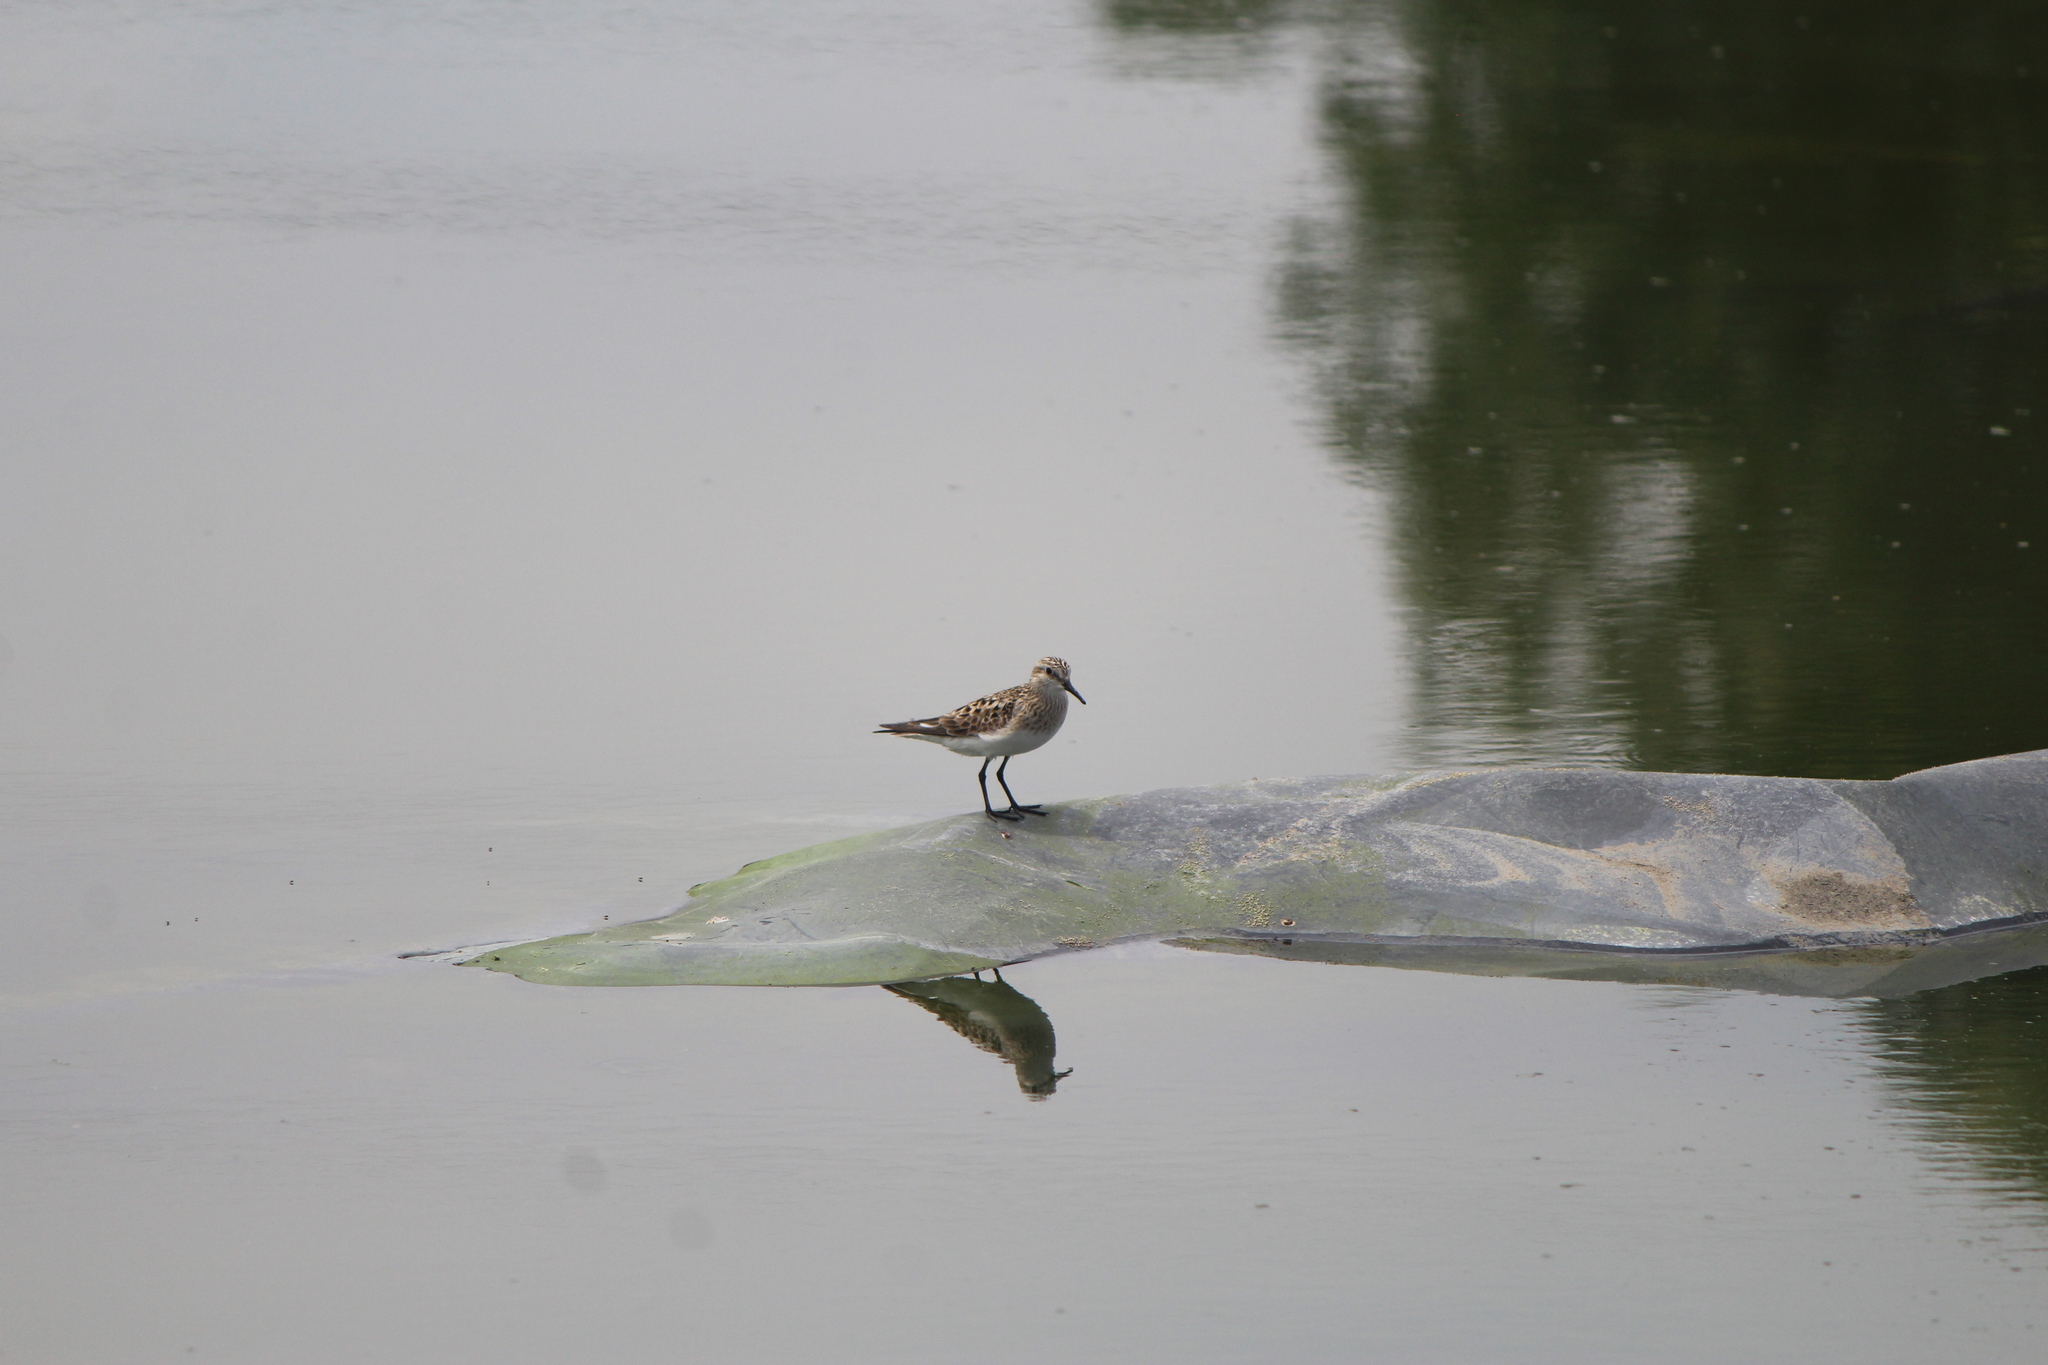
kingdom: Animalia
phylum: Chordata
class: Aves
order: Charadriiformes
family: Scolopacidae
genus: Calidris
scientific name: Calidris bairdii
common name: Baird's sandpiper
